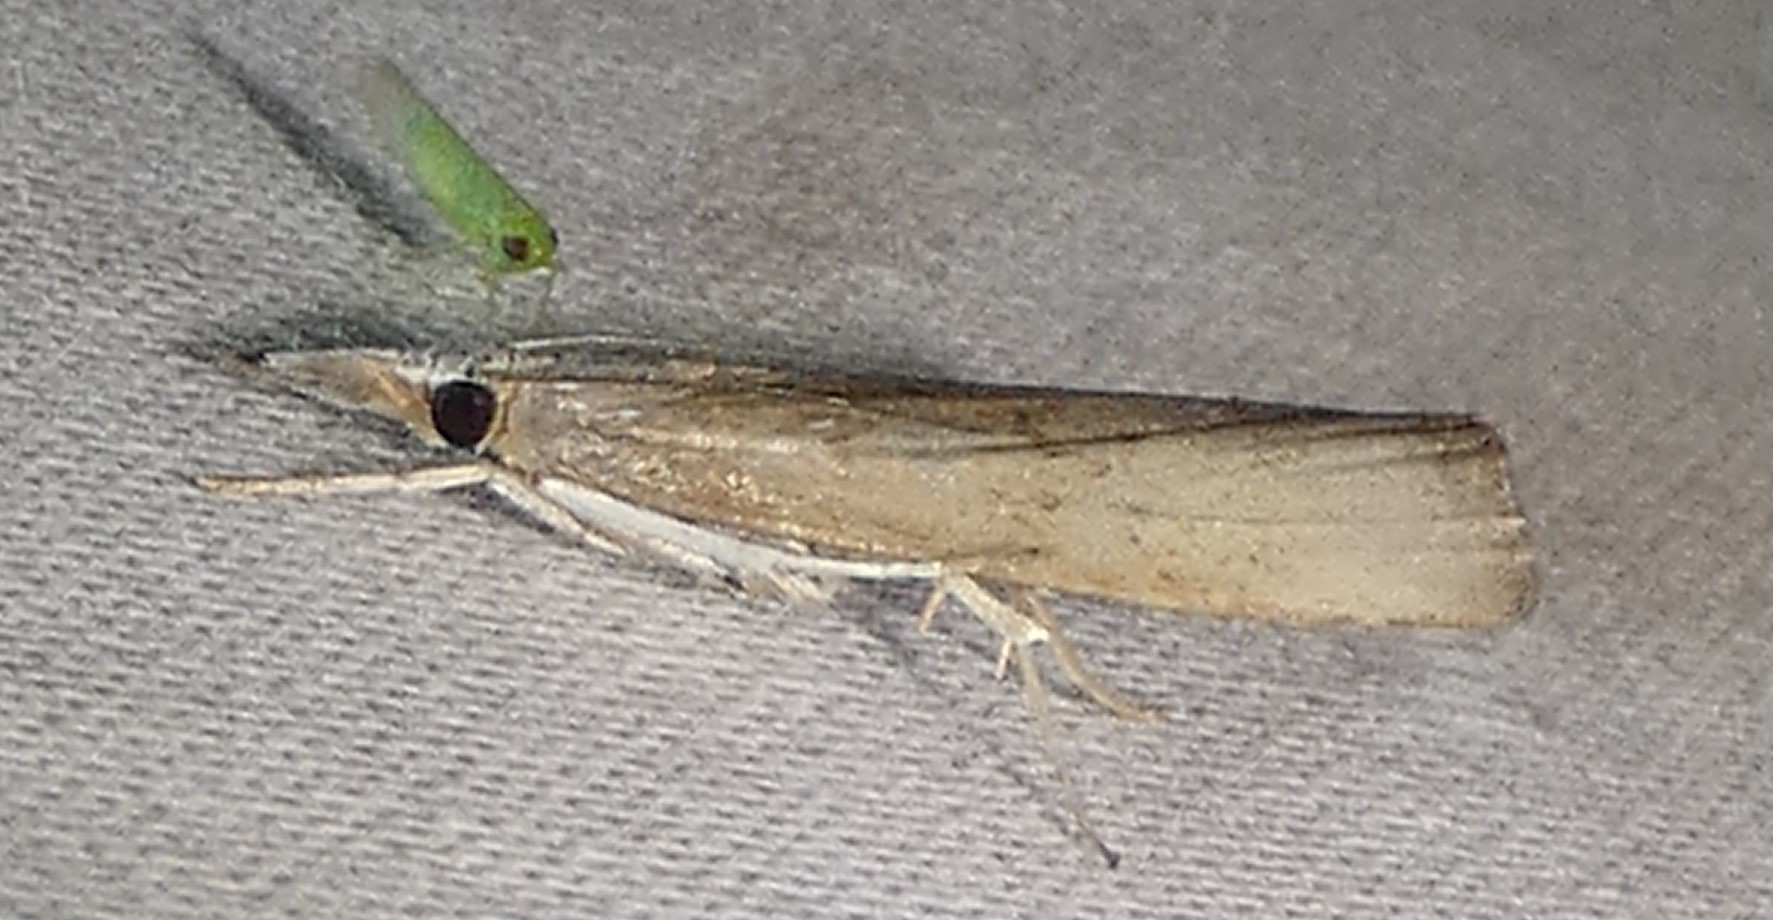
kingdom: Animalia
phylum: Arthropoda
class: Insecta
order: Lepidoptera
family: Crambidae
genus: Parapediasia
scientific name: Parapediasia teterellus
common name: Bluegrass webworm moth
